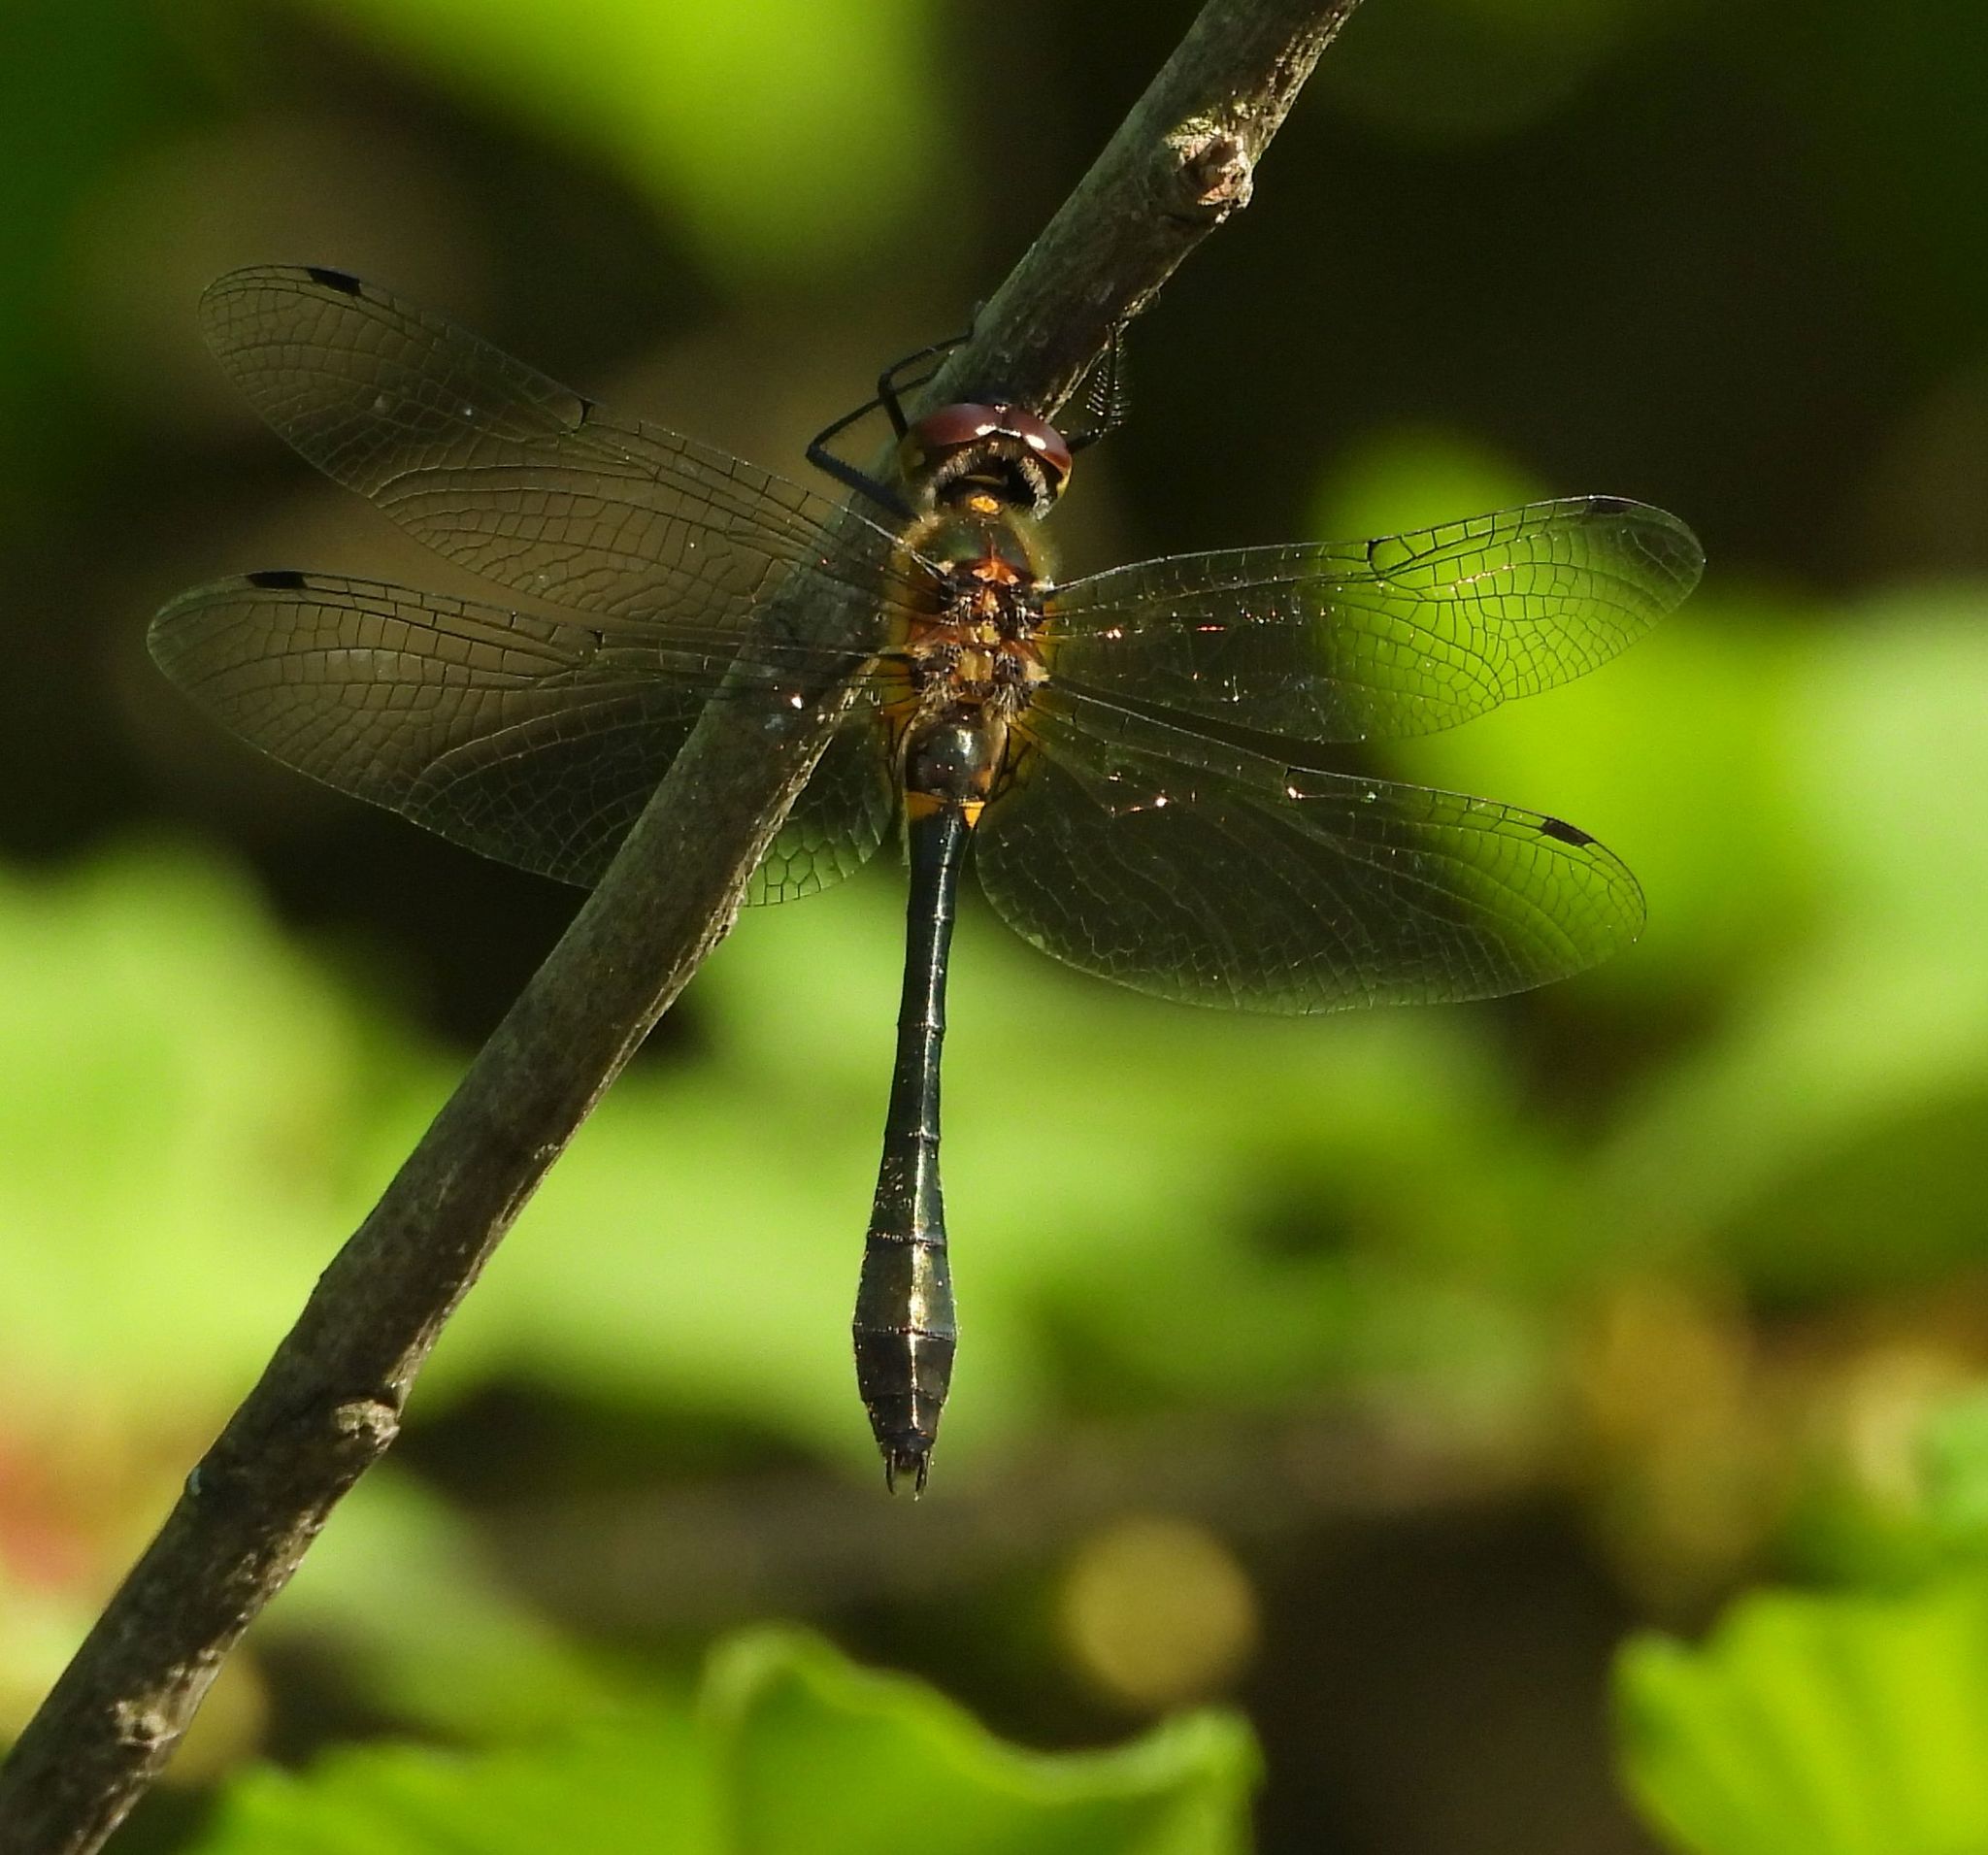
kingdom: Animalia
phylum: Arthropoda
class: Insecta
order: Odonata
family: Corduliidae
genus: Dorocordulia
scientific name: Dorocordulia libera
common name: Racket-tailed emerald
